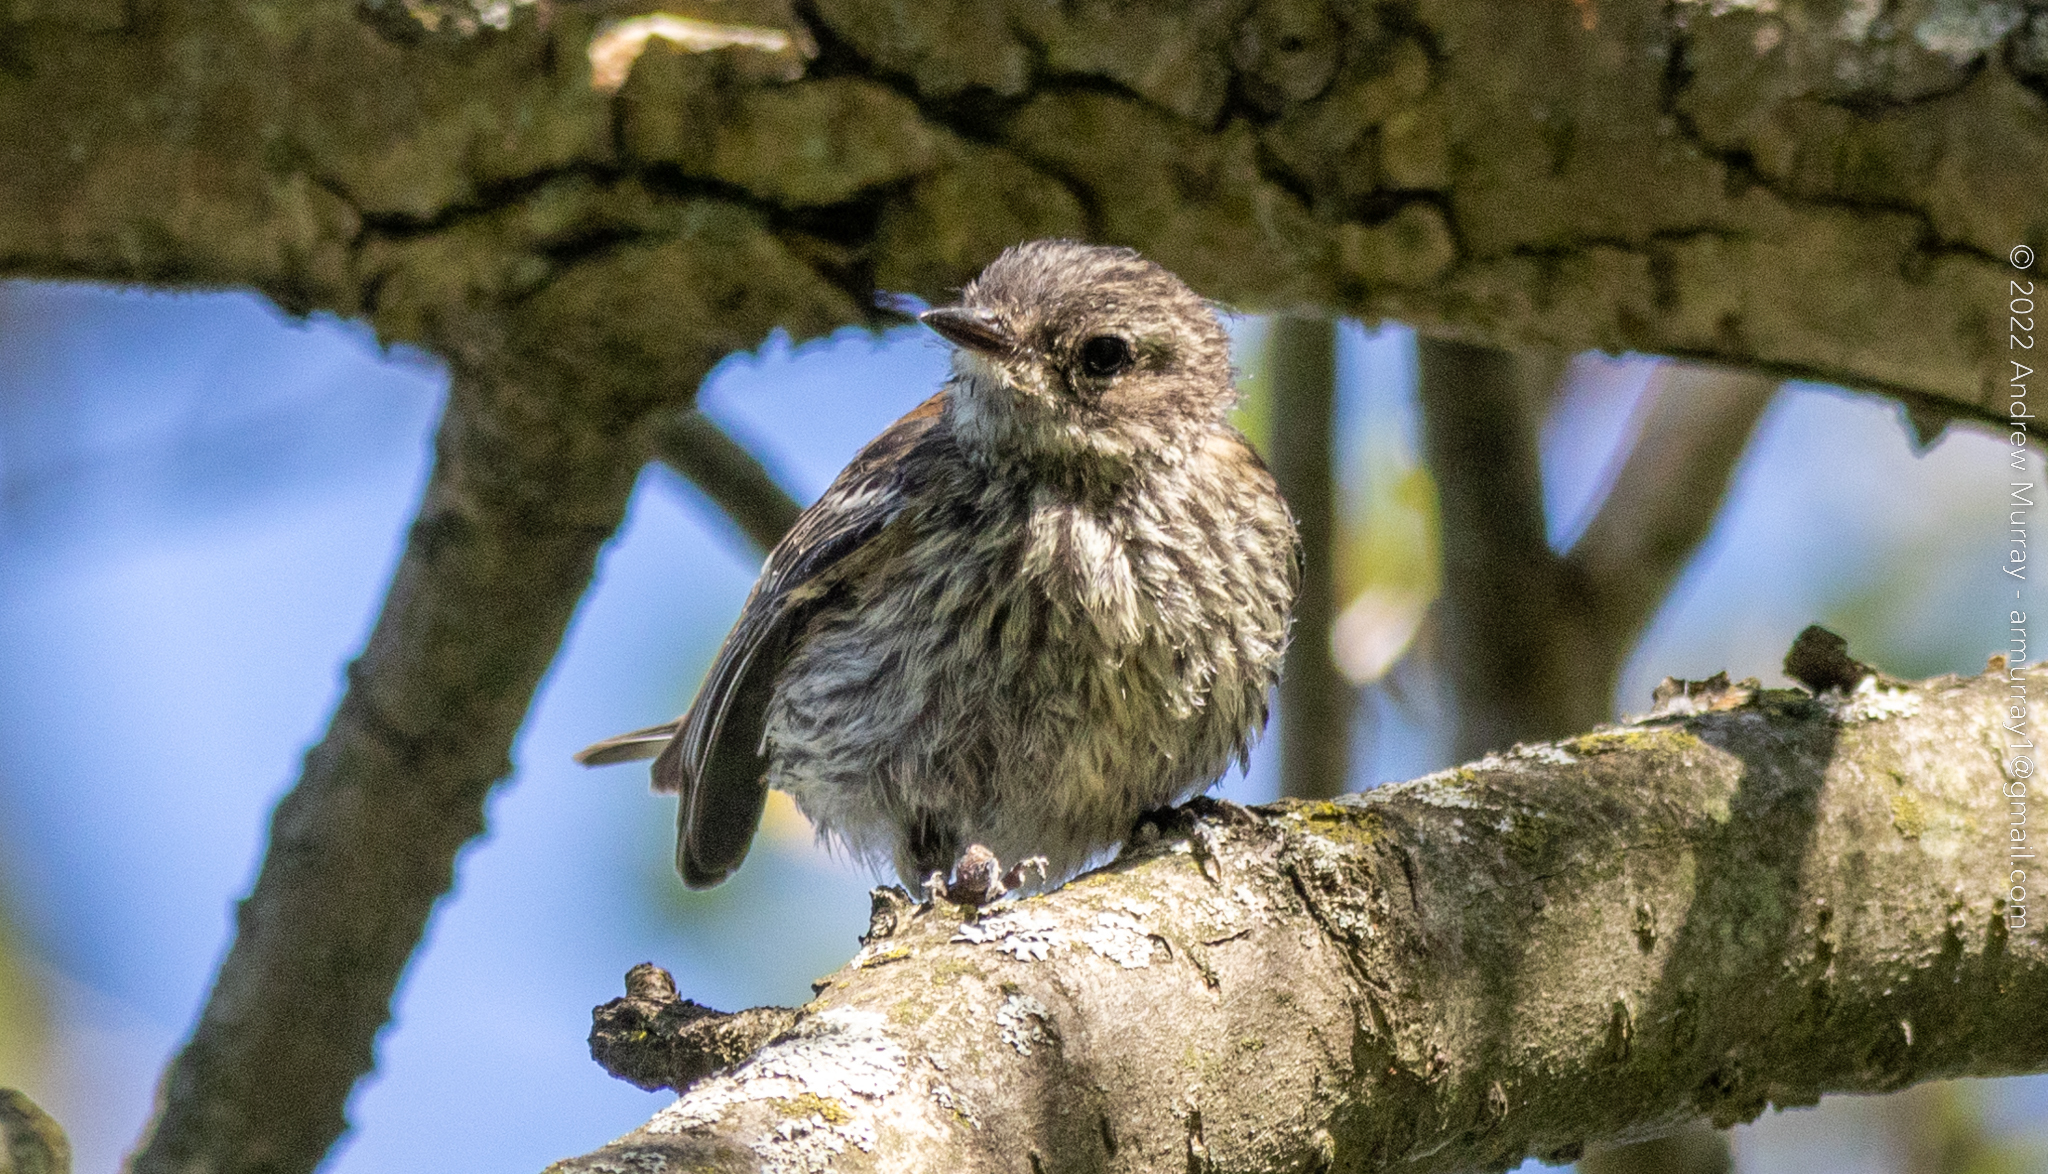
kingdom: Animalia
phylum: Chordata
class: Aves
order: Passeriformes
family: Parulidae
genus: Setophaga
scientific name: Setophaga coronata
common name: Myrtle warbler
